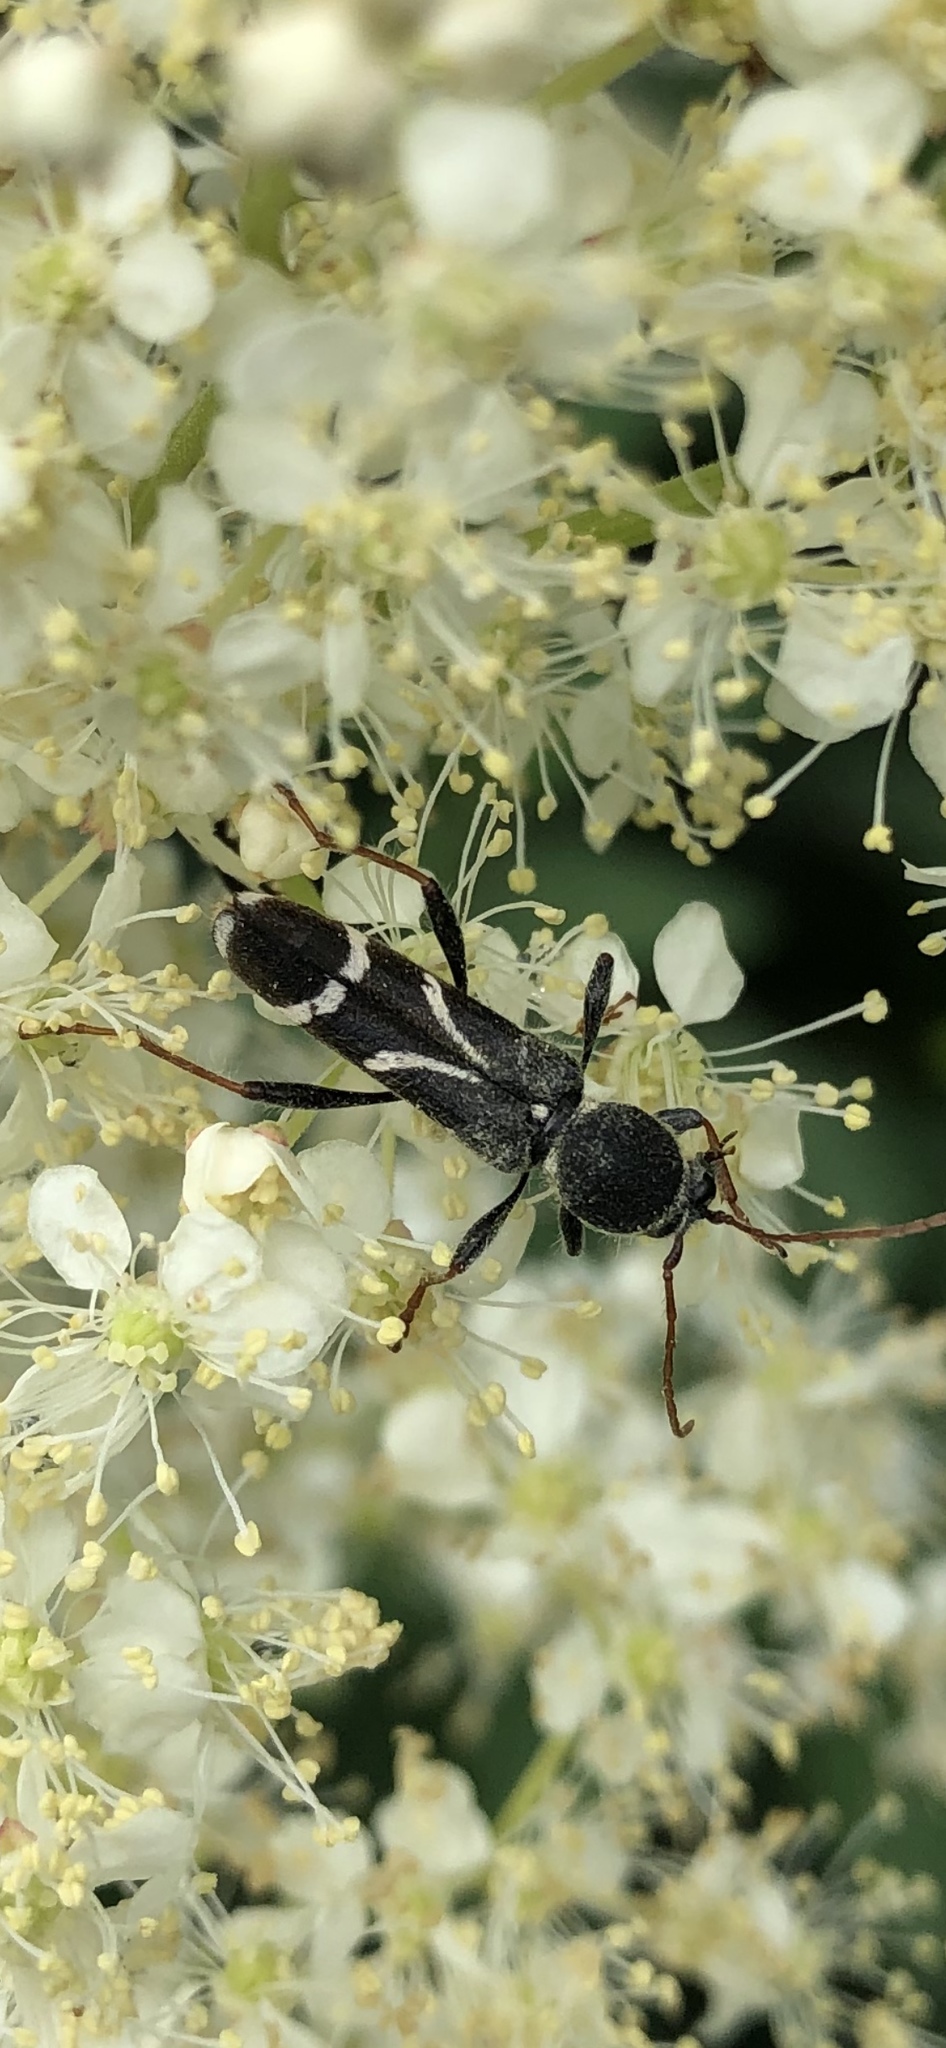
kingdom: Animalia
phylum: Arthropoda
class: Insecta
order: Coleoptera
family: Cerambycidae
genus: Cyrtoclytus
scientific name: Cyrtoclytus capra
